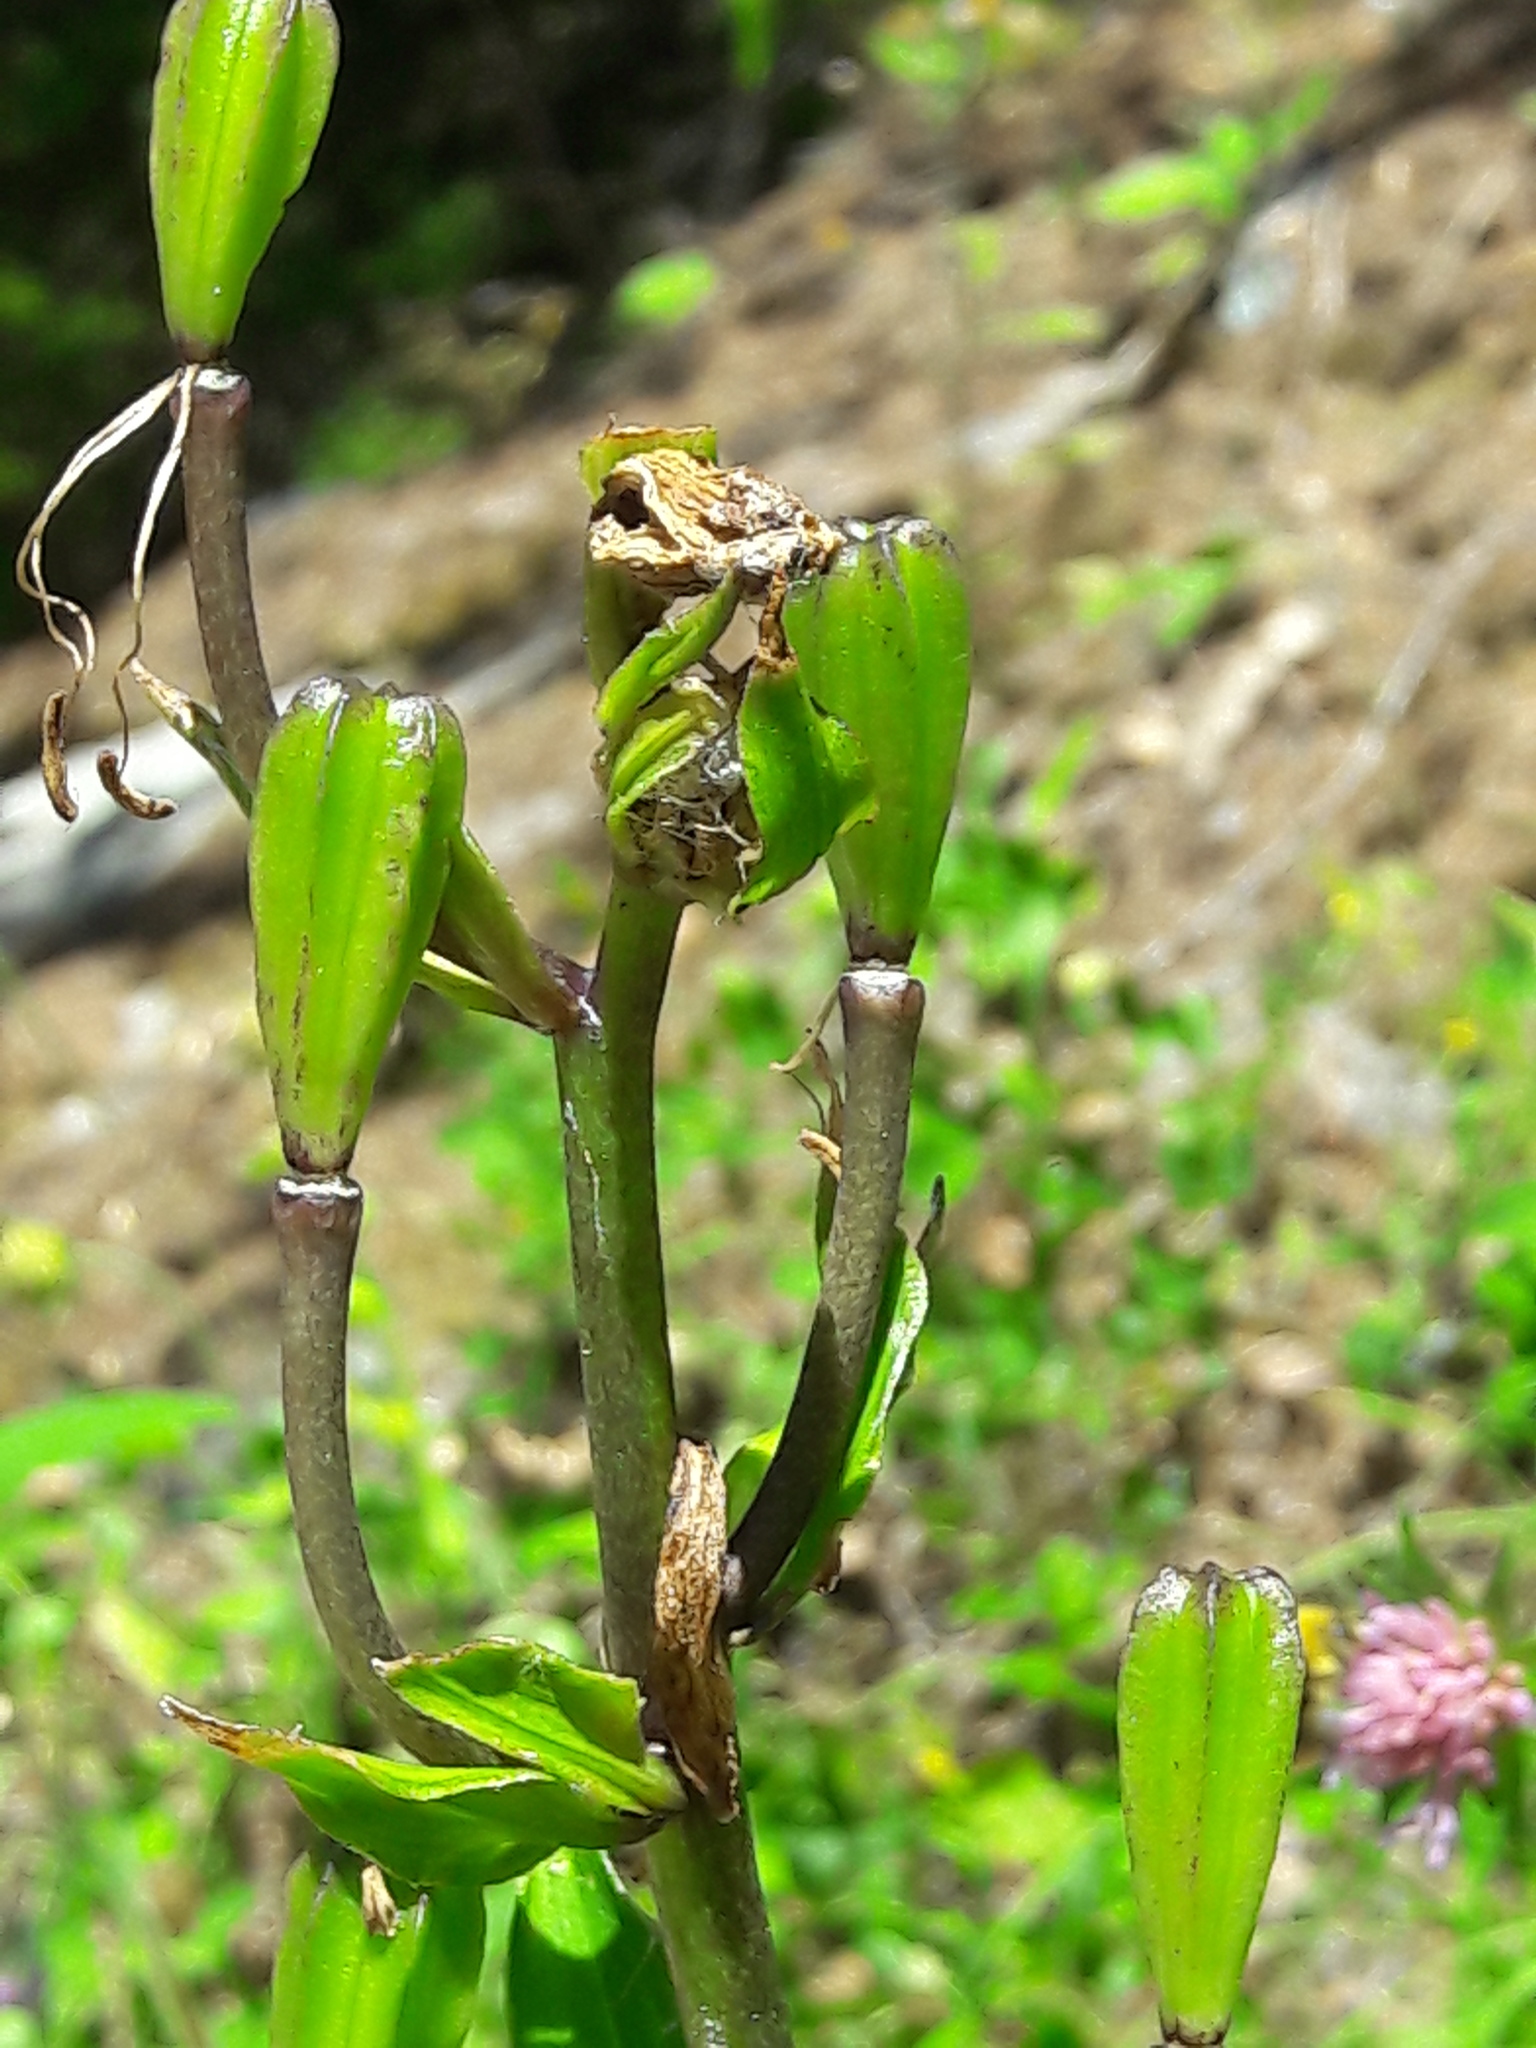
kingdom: Plantae
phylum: Tracheophyta
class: Liliopsida
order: Liliales
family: Liliaceae
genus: Lilium
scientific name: Lilium martagon
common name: Martagon lily
